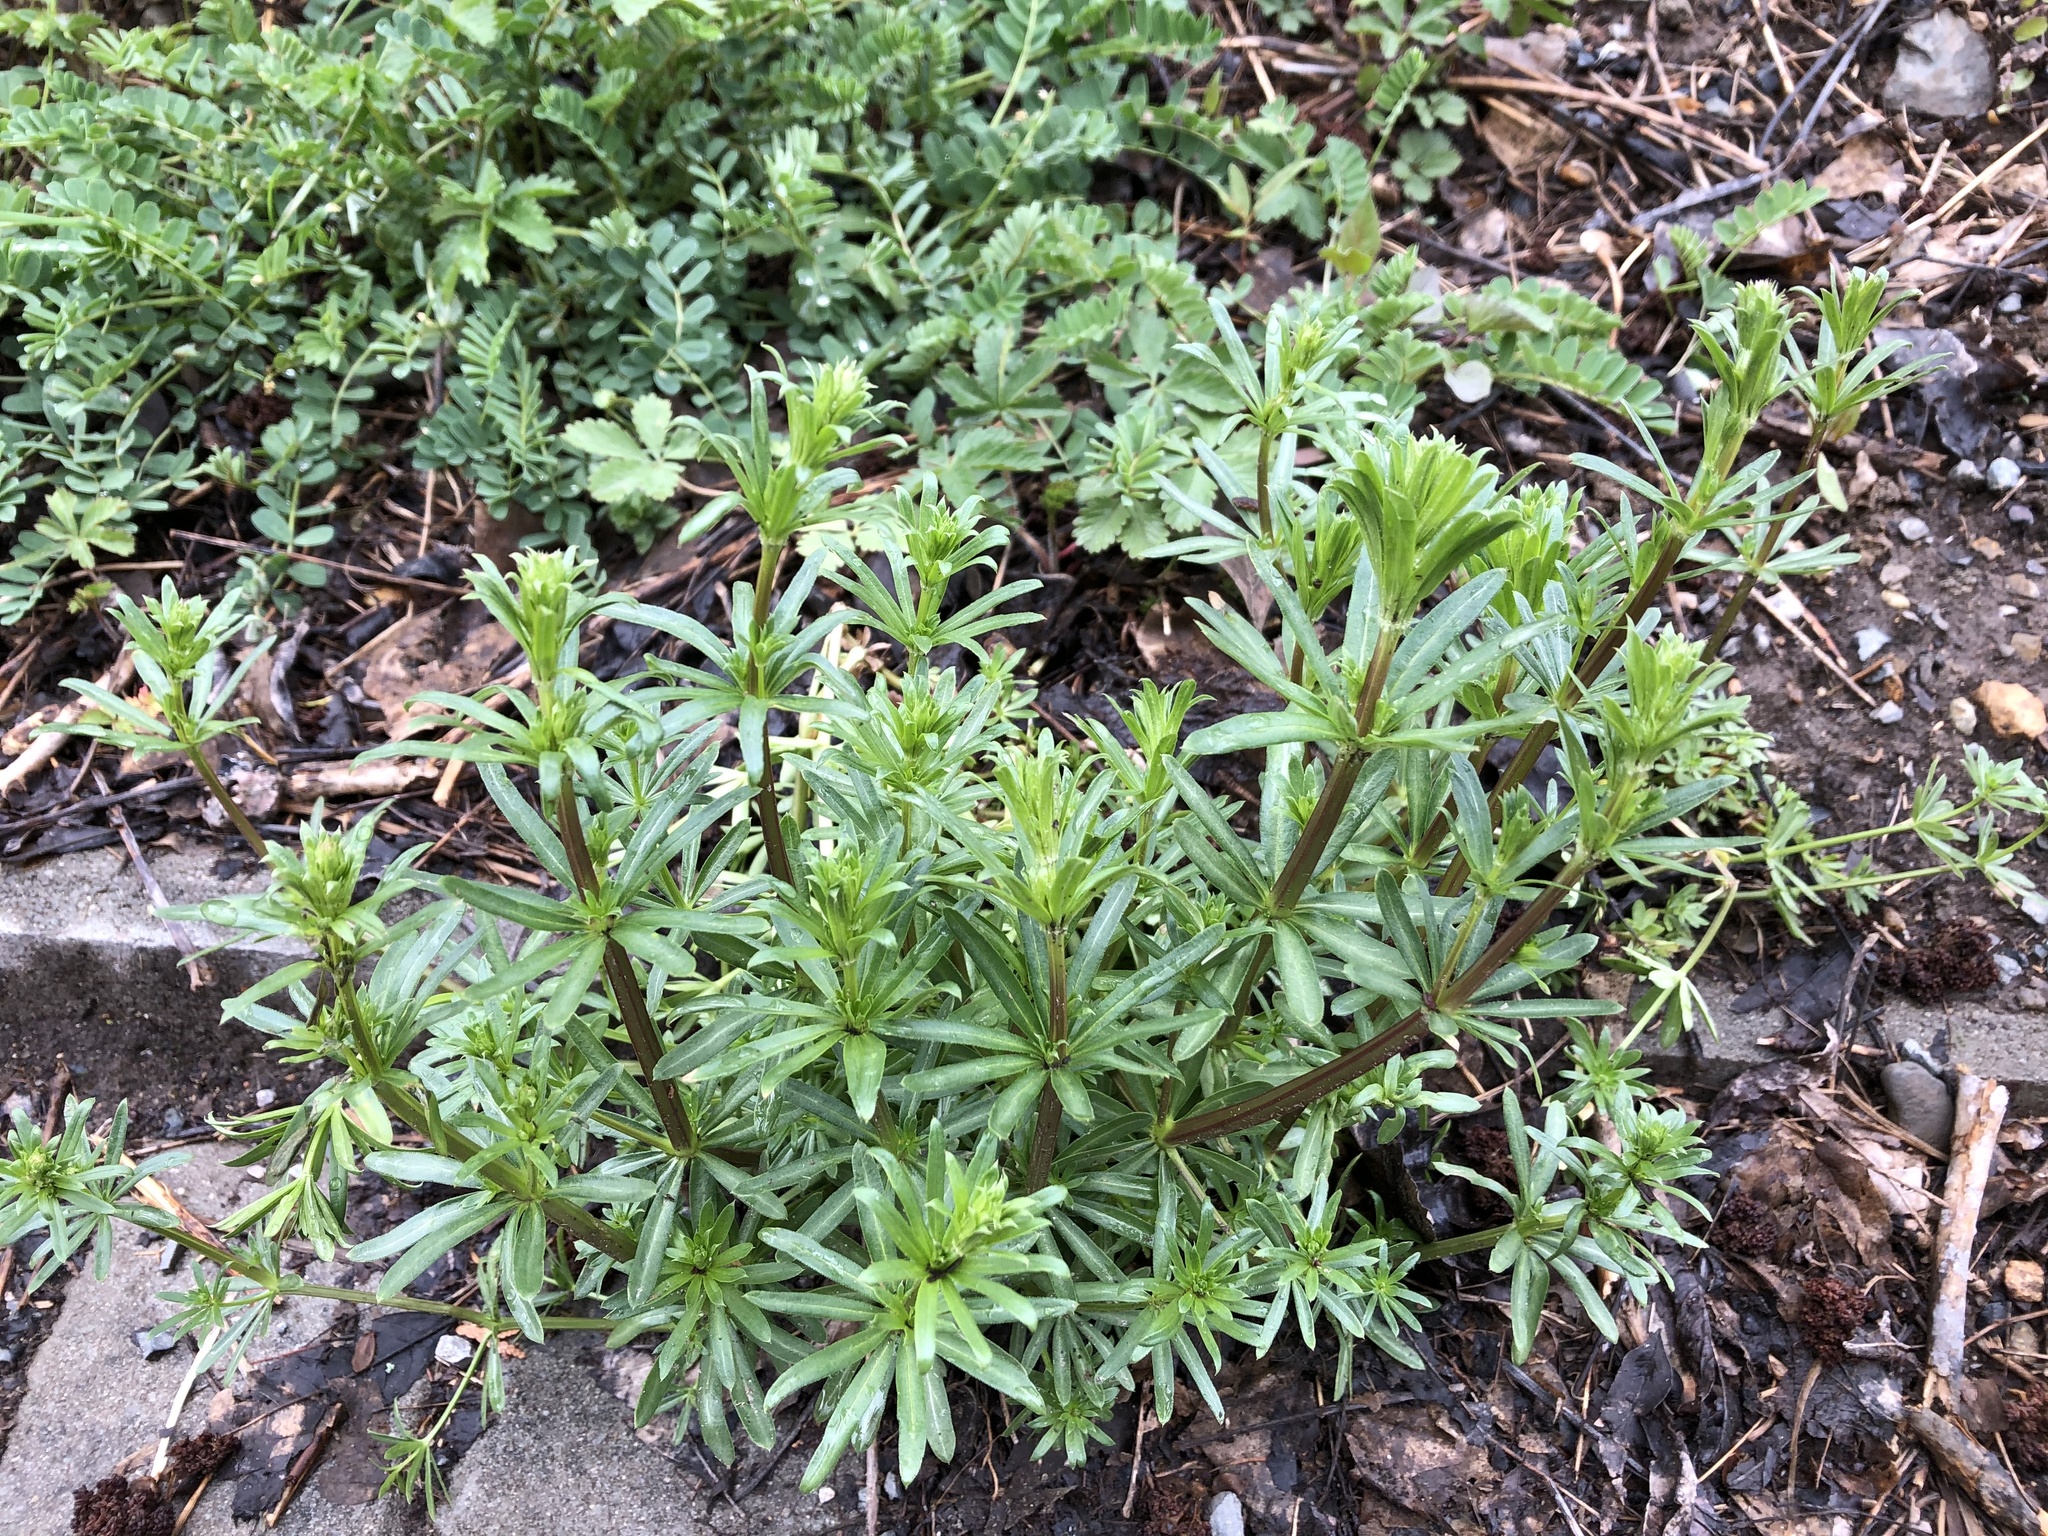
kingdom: Plantae
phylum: Tracheophyta
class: Magnoliopsida
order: Gentianales
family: Rubiaceae
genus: Galium
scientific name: Galium album
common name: White bedstraw
